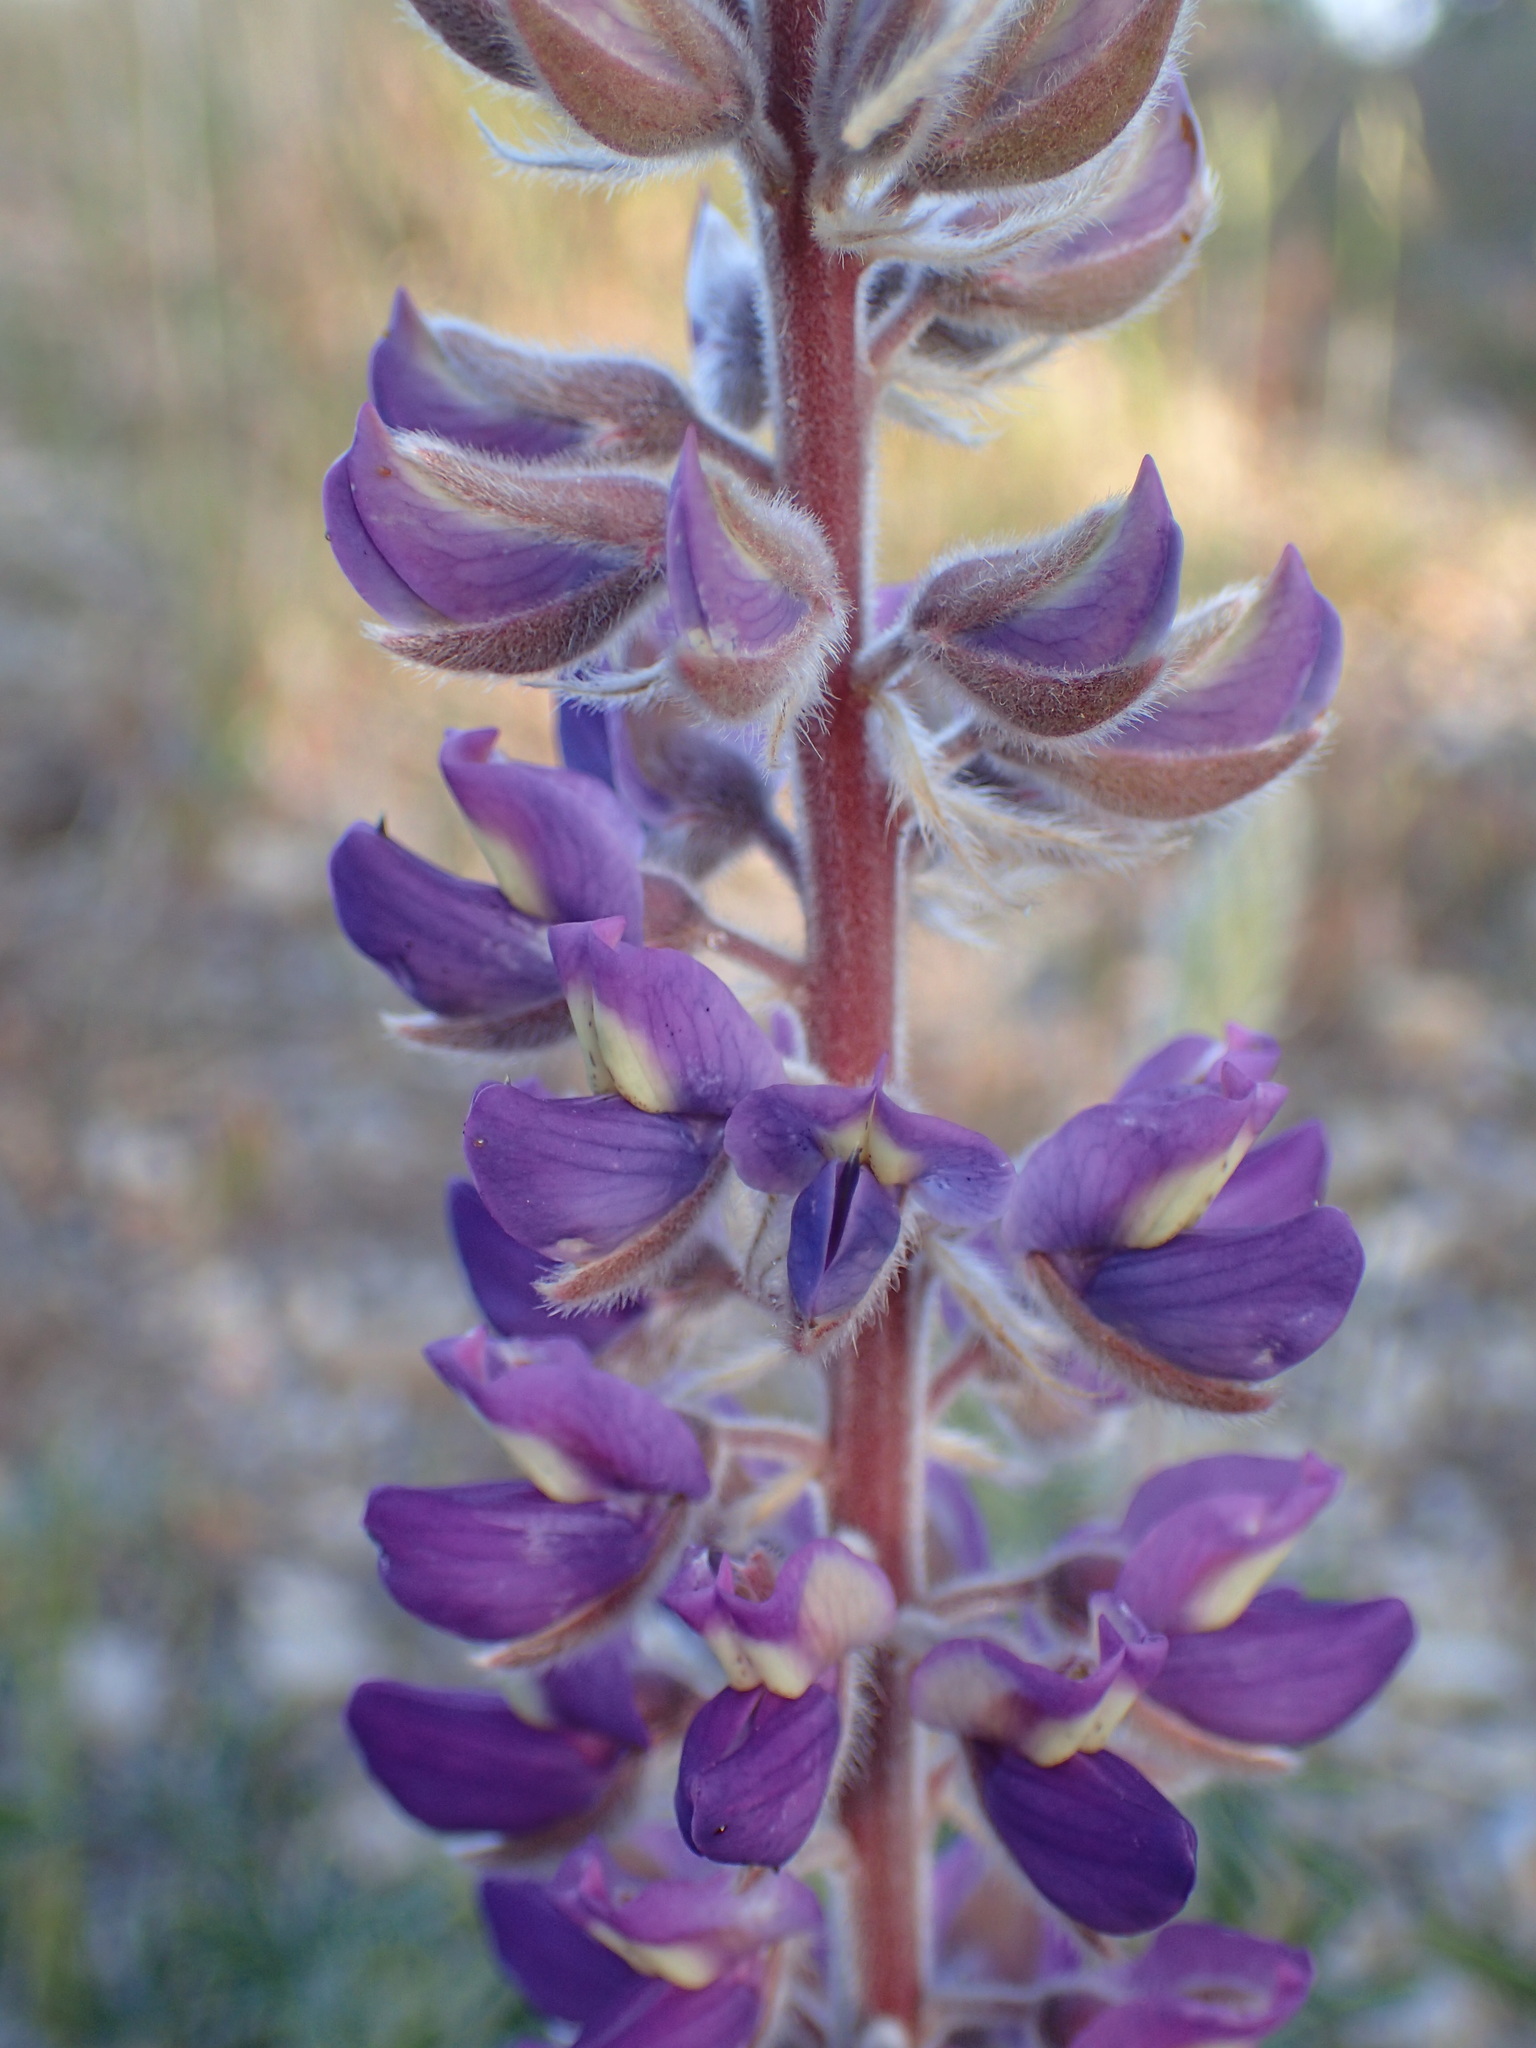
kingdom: Plantae
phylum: Tracheophyta
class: Magnoliopsida
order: Fabales
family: Fabaceae
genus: Lupinus
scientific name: Lupinus formosus
